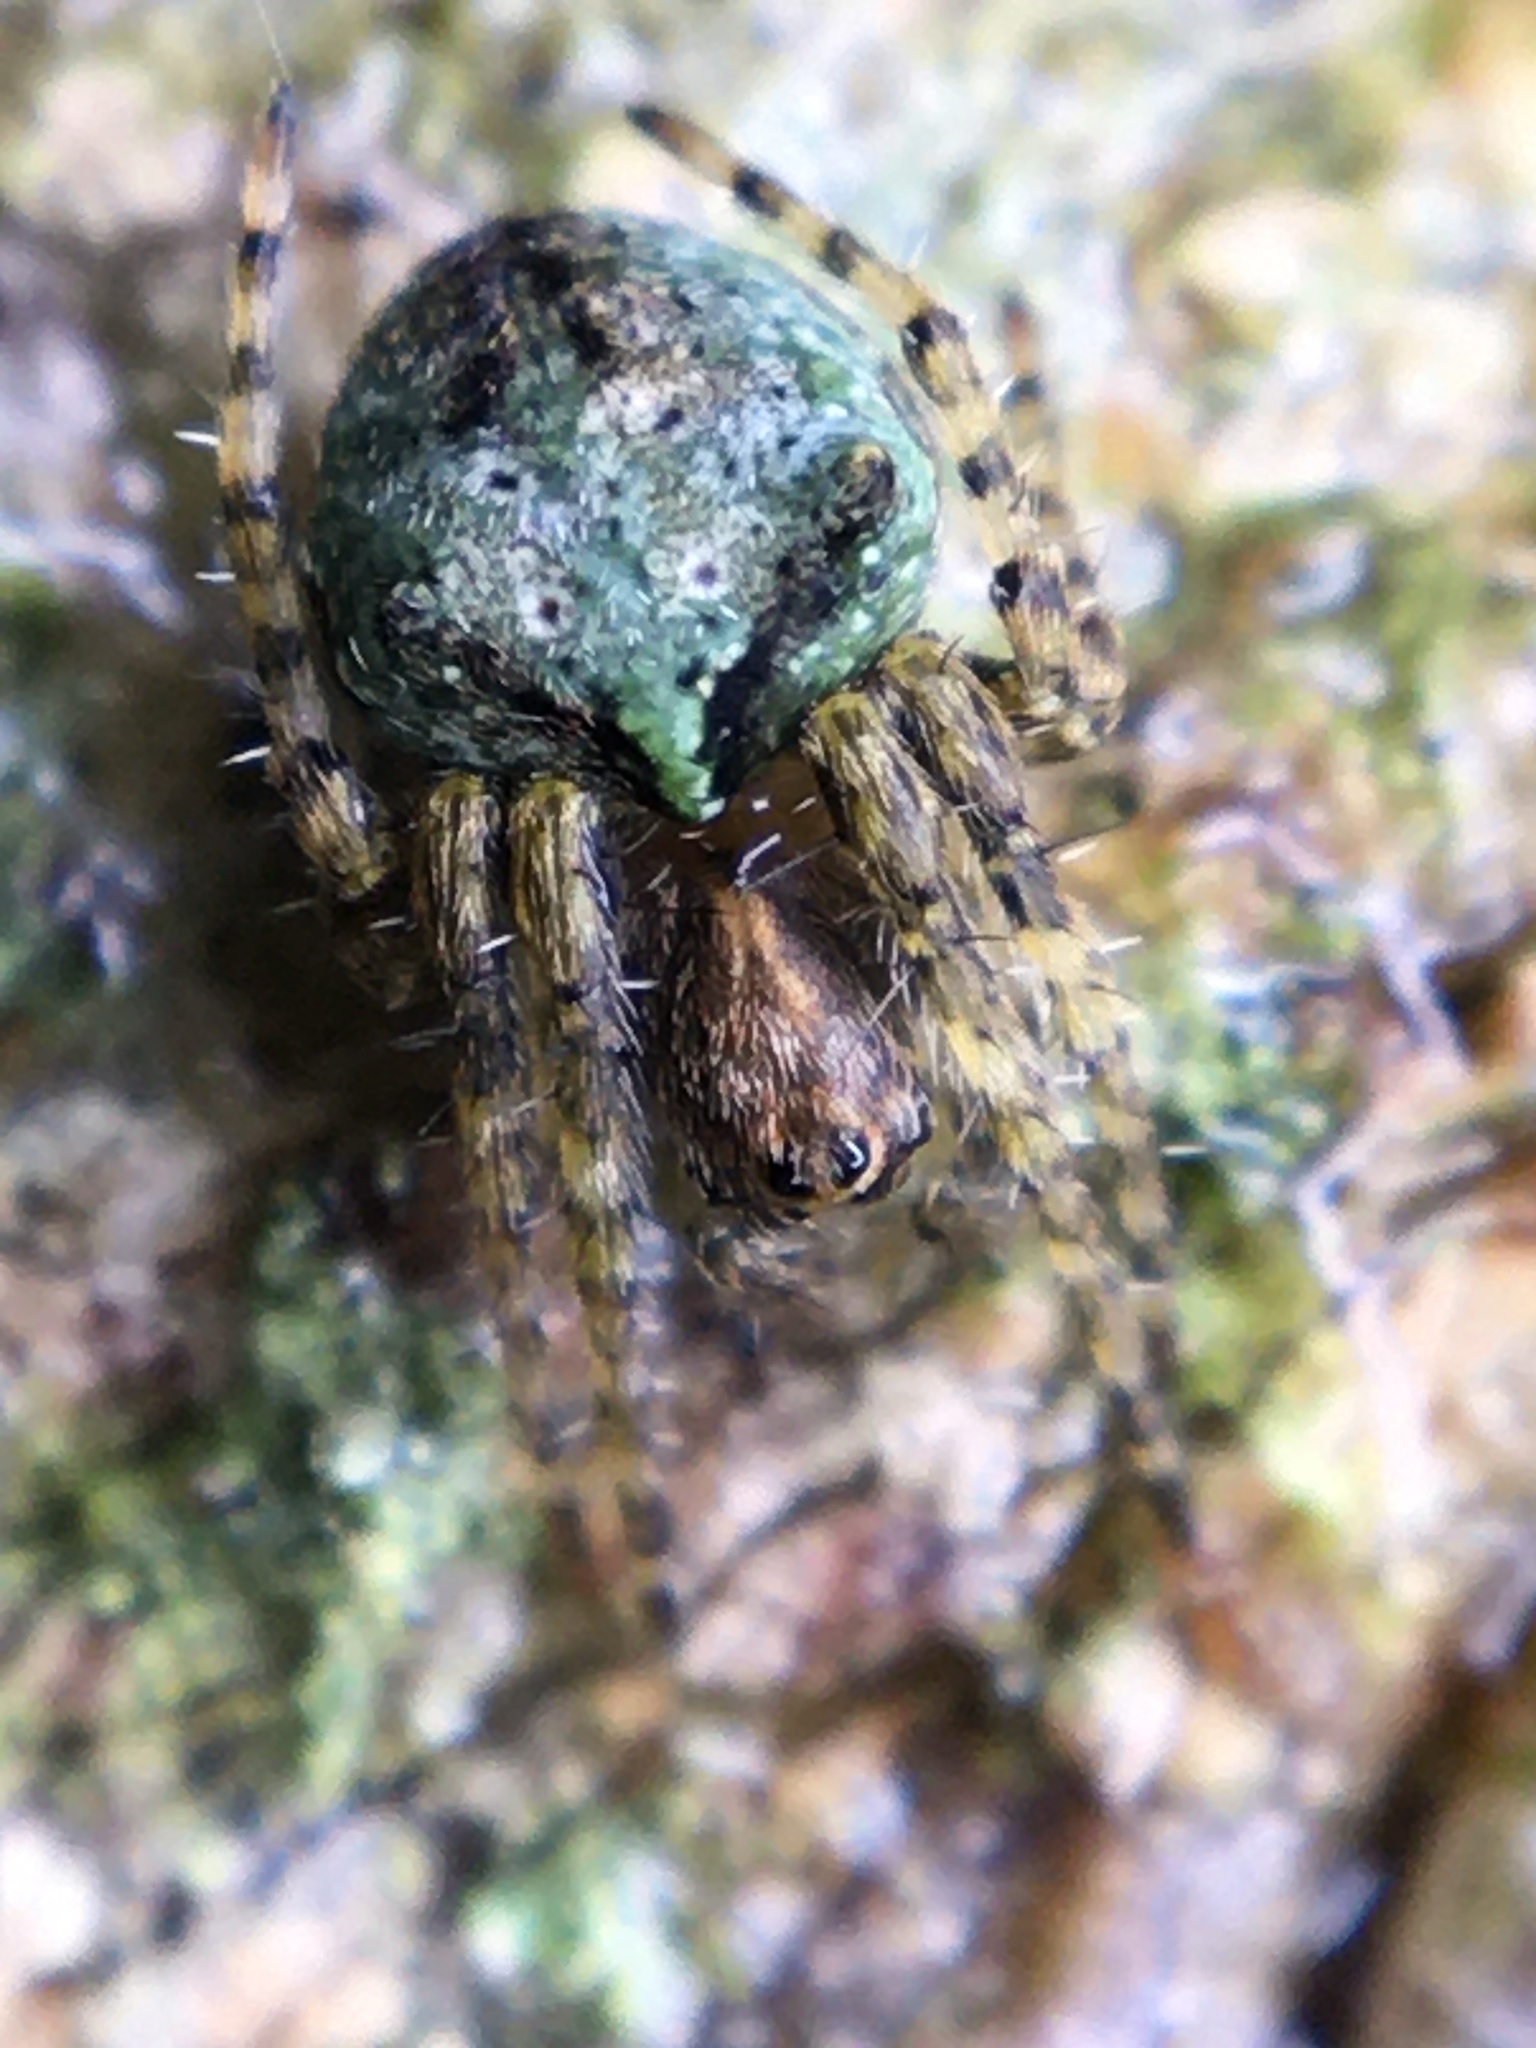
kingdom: Animalia
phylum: Arthropoda
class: Arachnida
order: Araneae
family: Araneidae
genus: Gibbaranea
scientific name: Gibbaranea gibbosa
